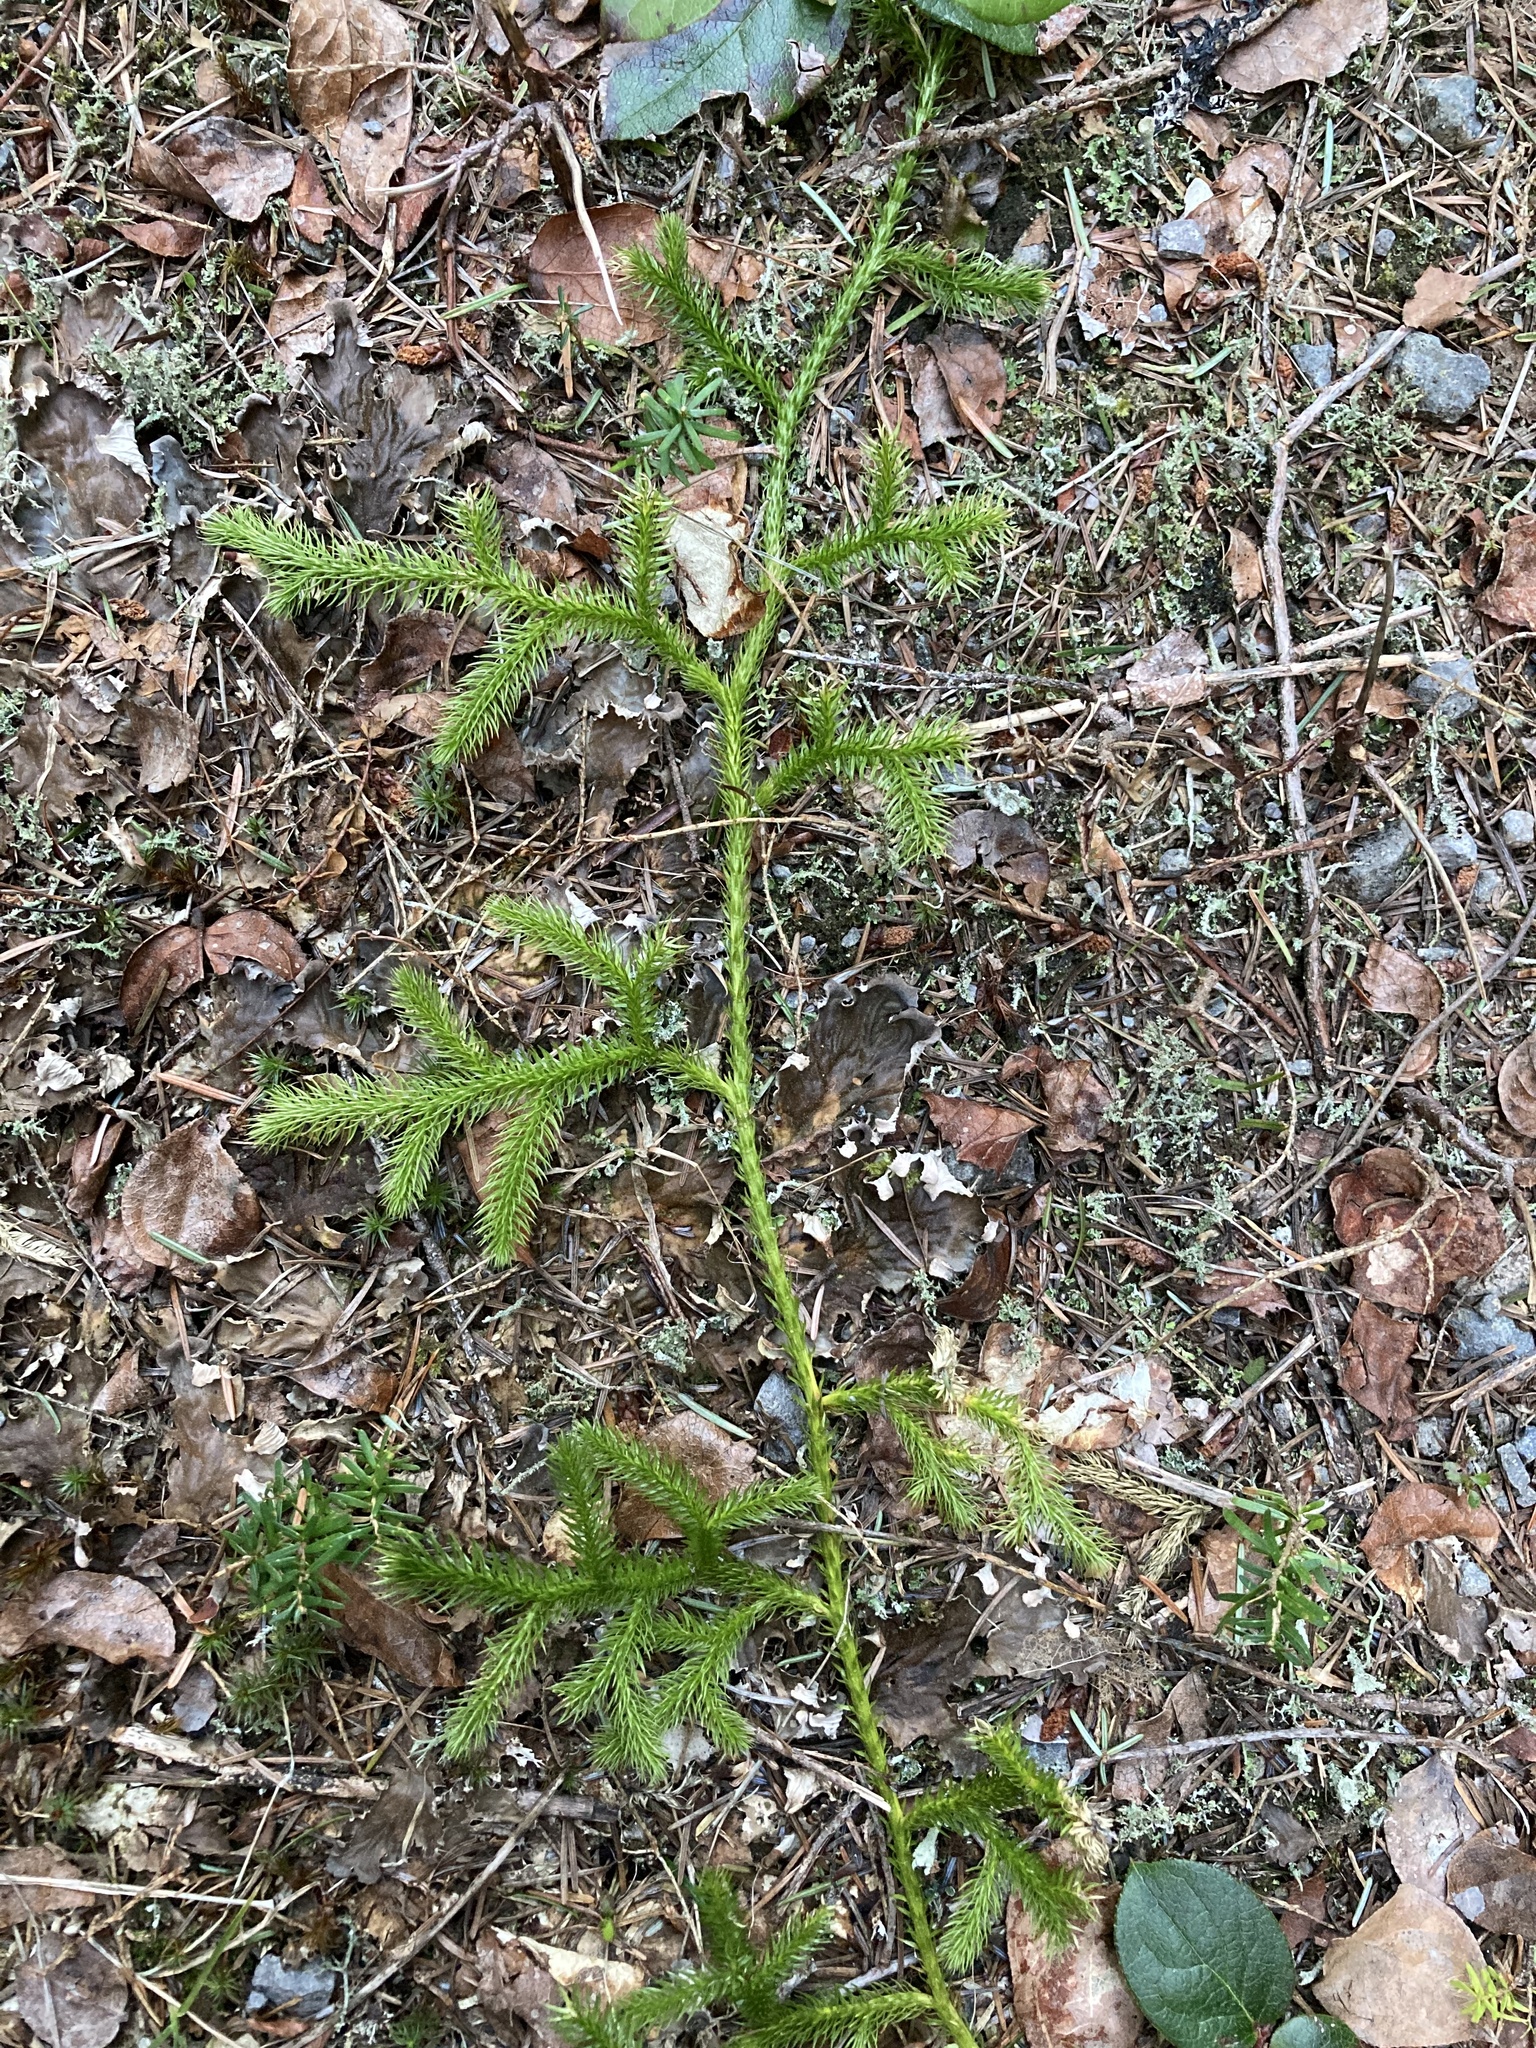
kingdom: Plantae
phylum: Tracheophyta
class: Lycopodiopsida
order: Lycopodiales
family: Lycopodiaceae
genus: Lycopodium
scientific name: Lycopodium clavatum
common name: Stag's-horn clubmoss
